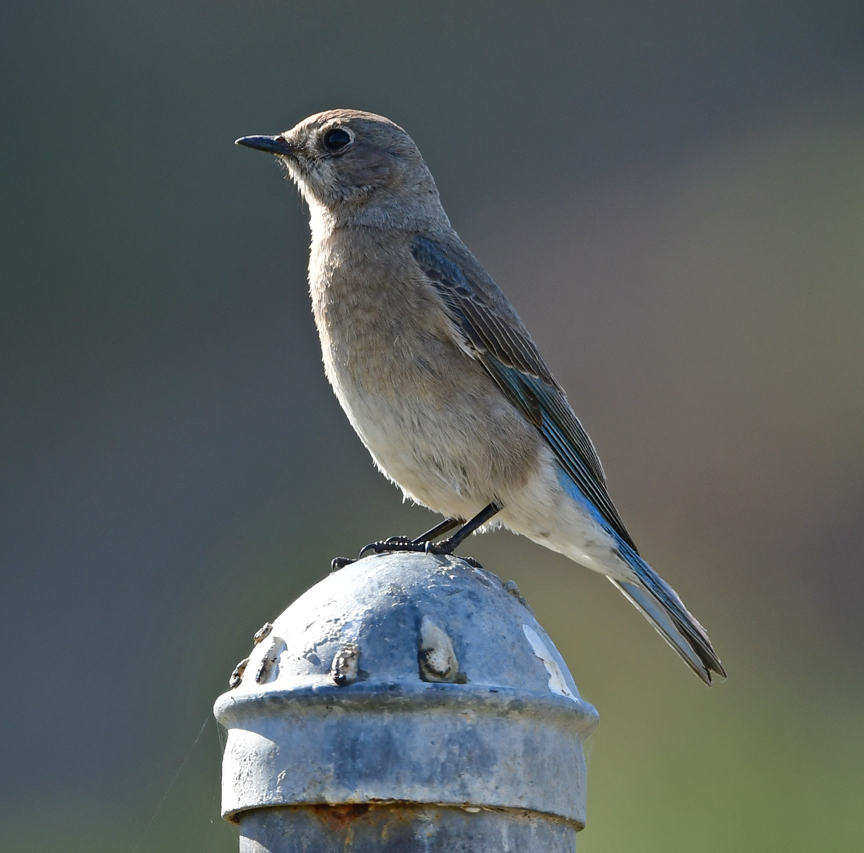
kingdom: Animalia
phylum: Chordata
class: Aves
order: Passeriformes
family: Turdidae
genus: Sialia
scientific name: Sialia currucoides
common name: Mountain bluebird
